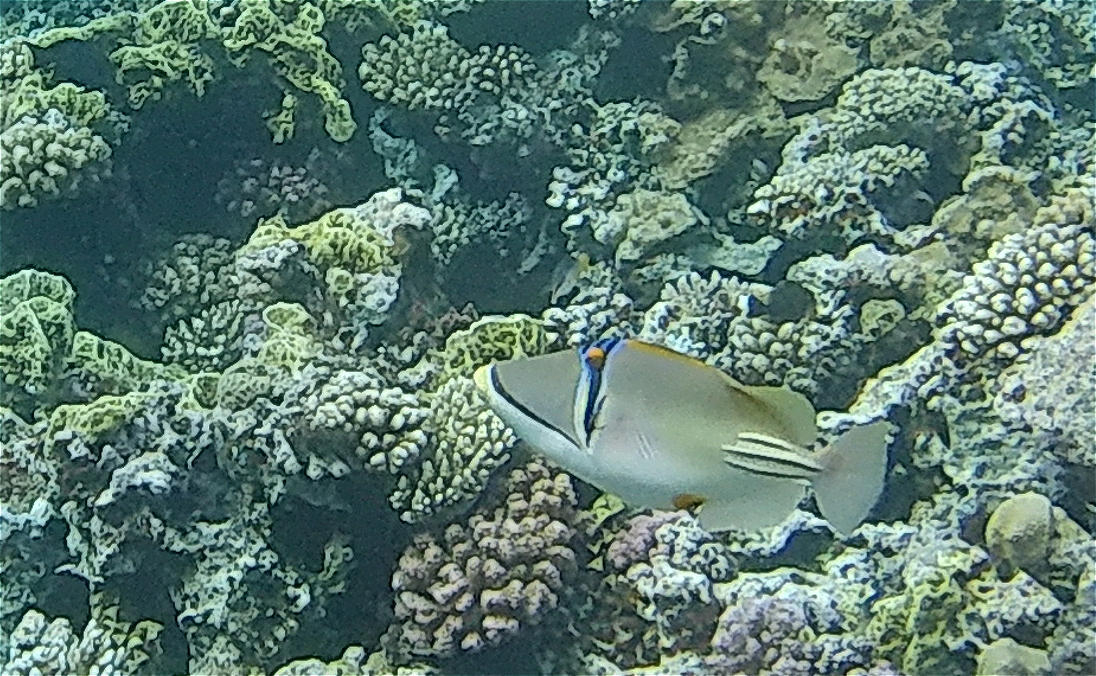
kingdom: Animalia
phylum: Chordata
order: Tetraodontiformes
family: Balistidae
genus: Rhinecanthus
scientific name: Rhinecanthus assasi
